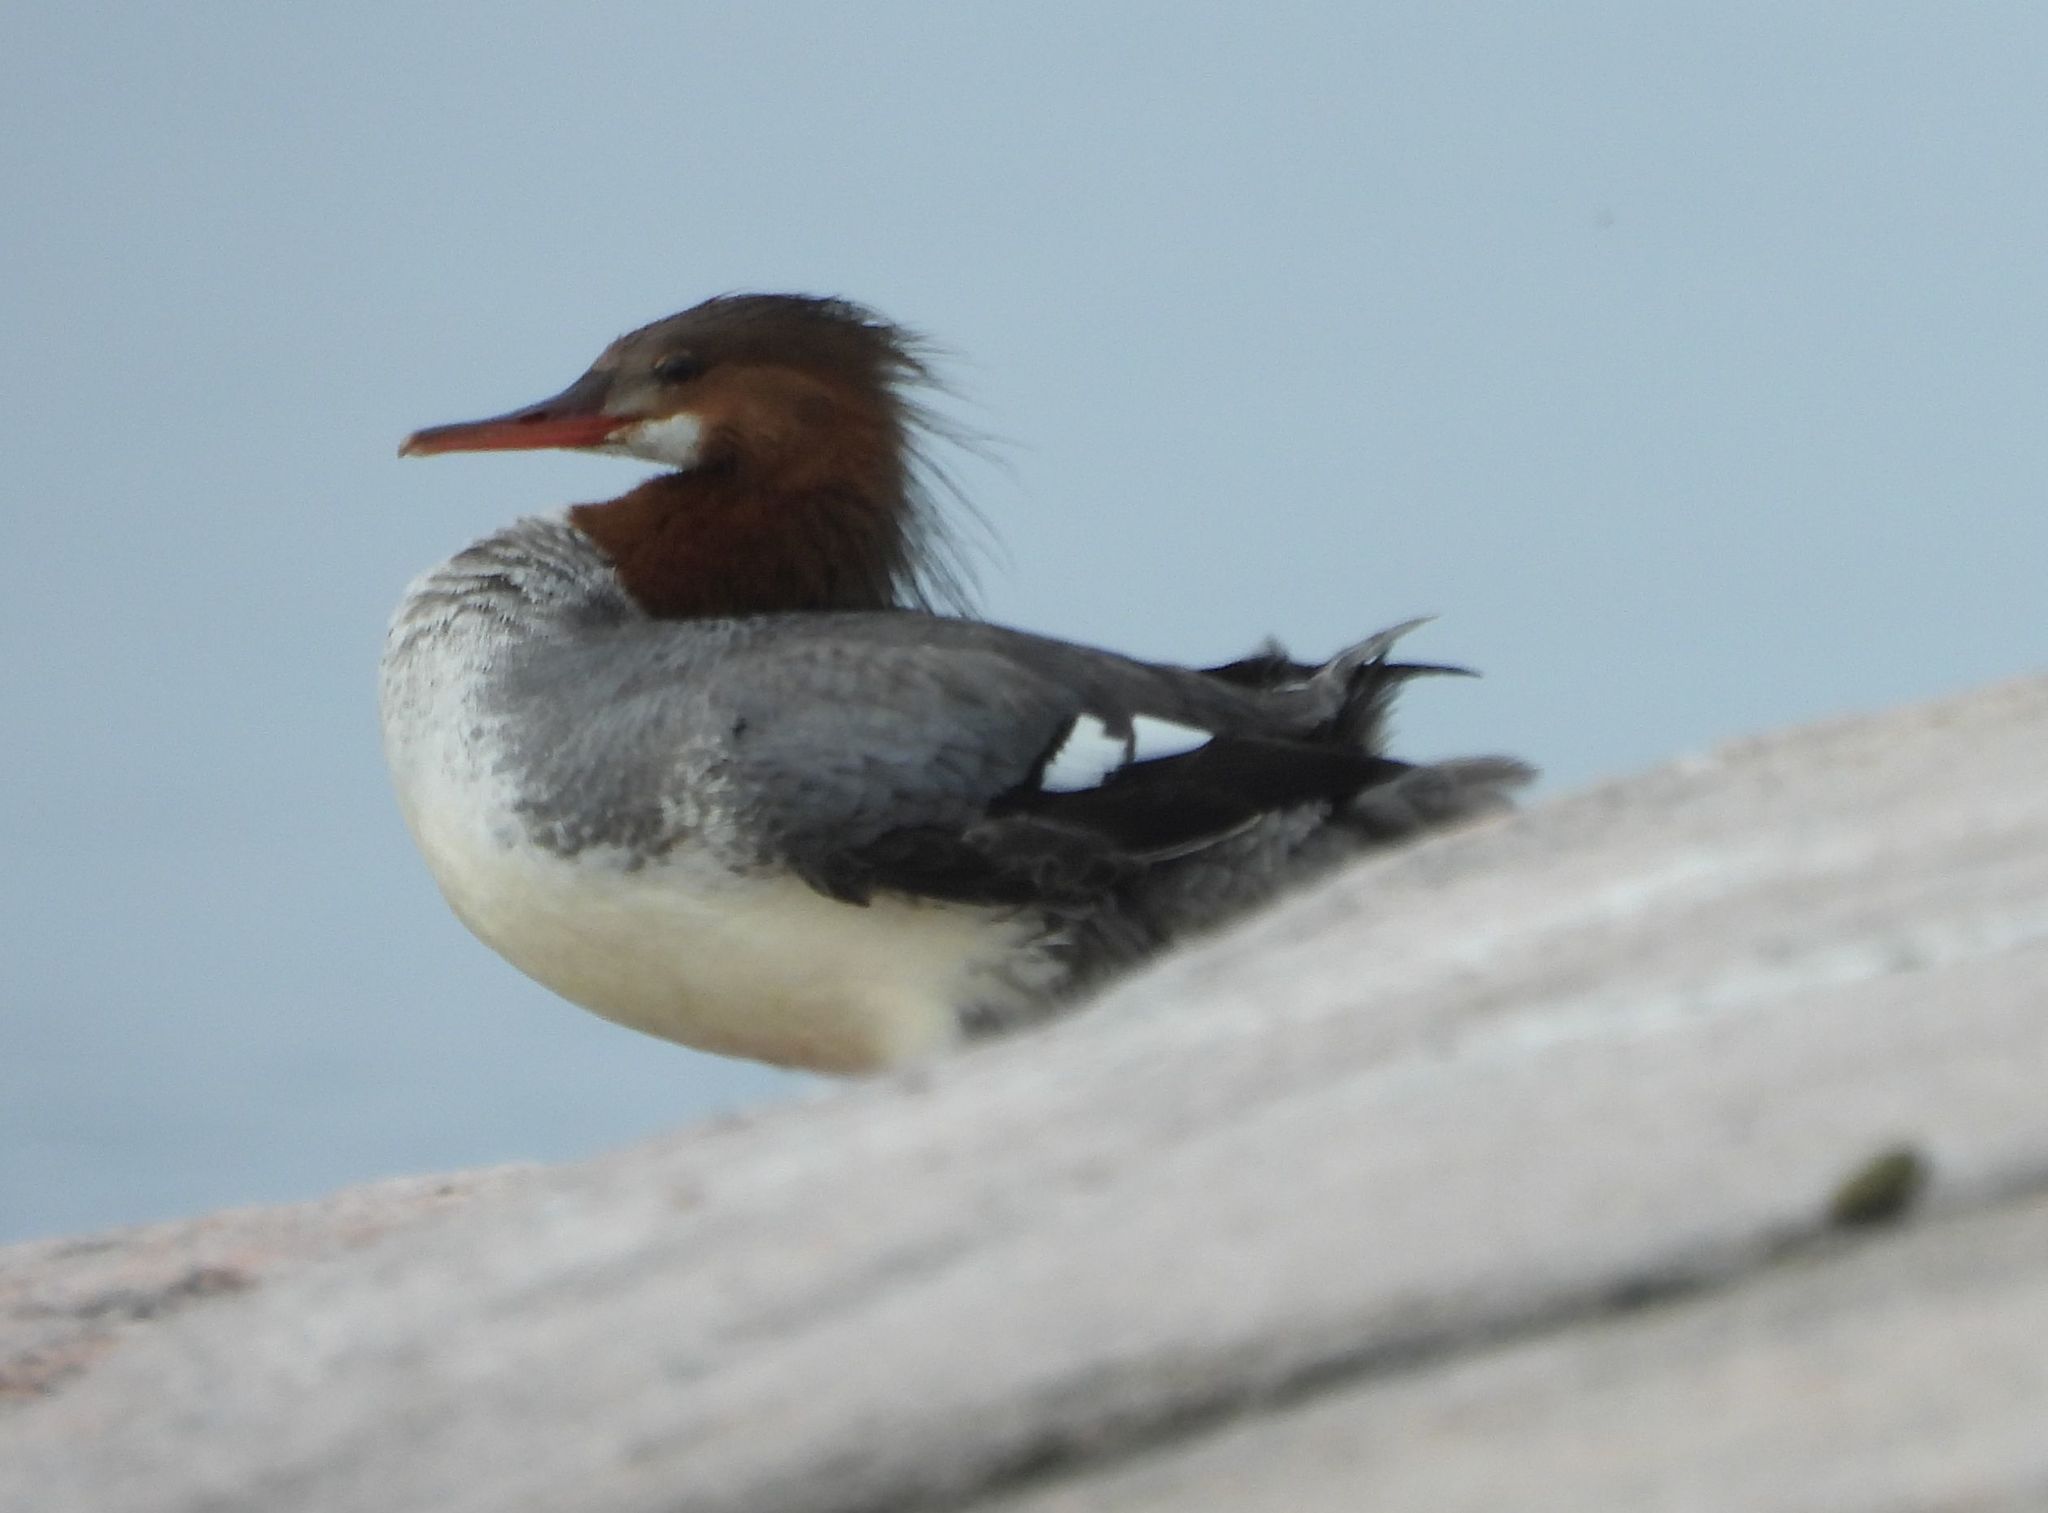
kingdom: Animalia
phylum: Chordata
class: Aves
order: Anseriformes
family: Anatidae
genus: Mergus
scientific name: Mergus merganser
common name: Common merganser
